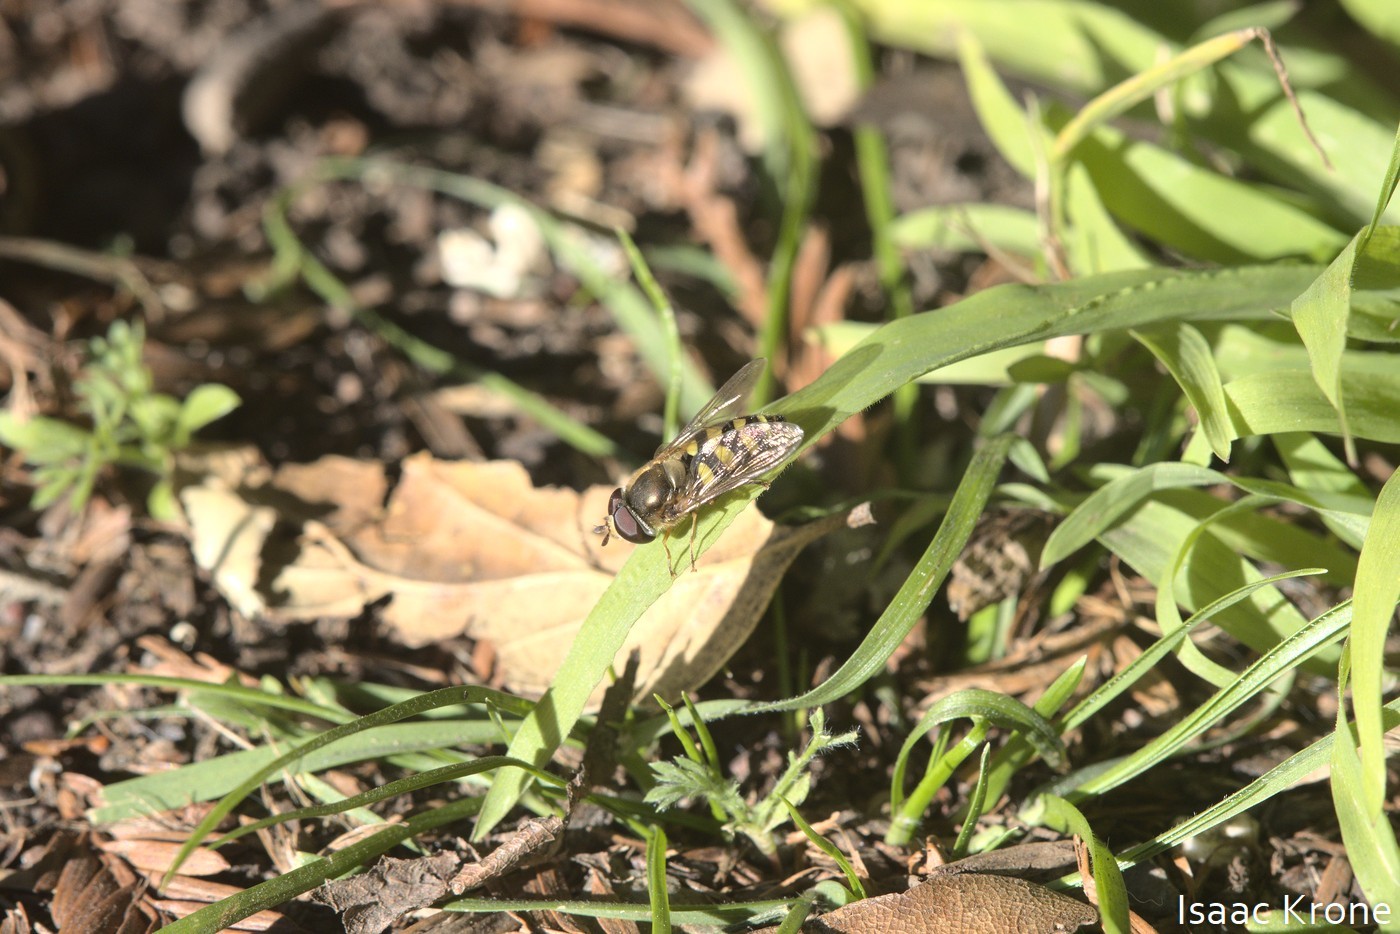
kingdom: Animalia
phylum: Arthropoda
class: Insecta
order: Diptera
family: Syrphidae
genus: Eupeodes
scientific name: Eupeodes fumipennis
